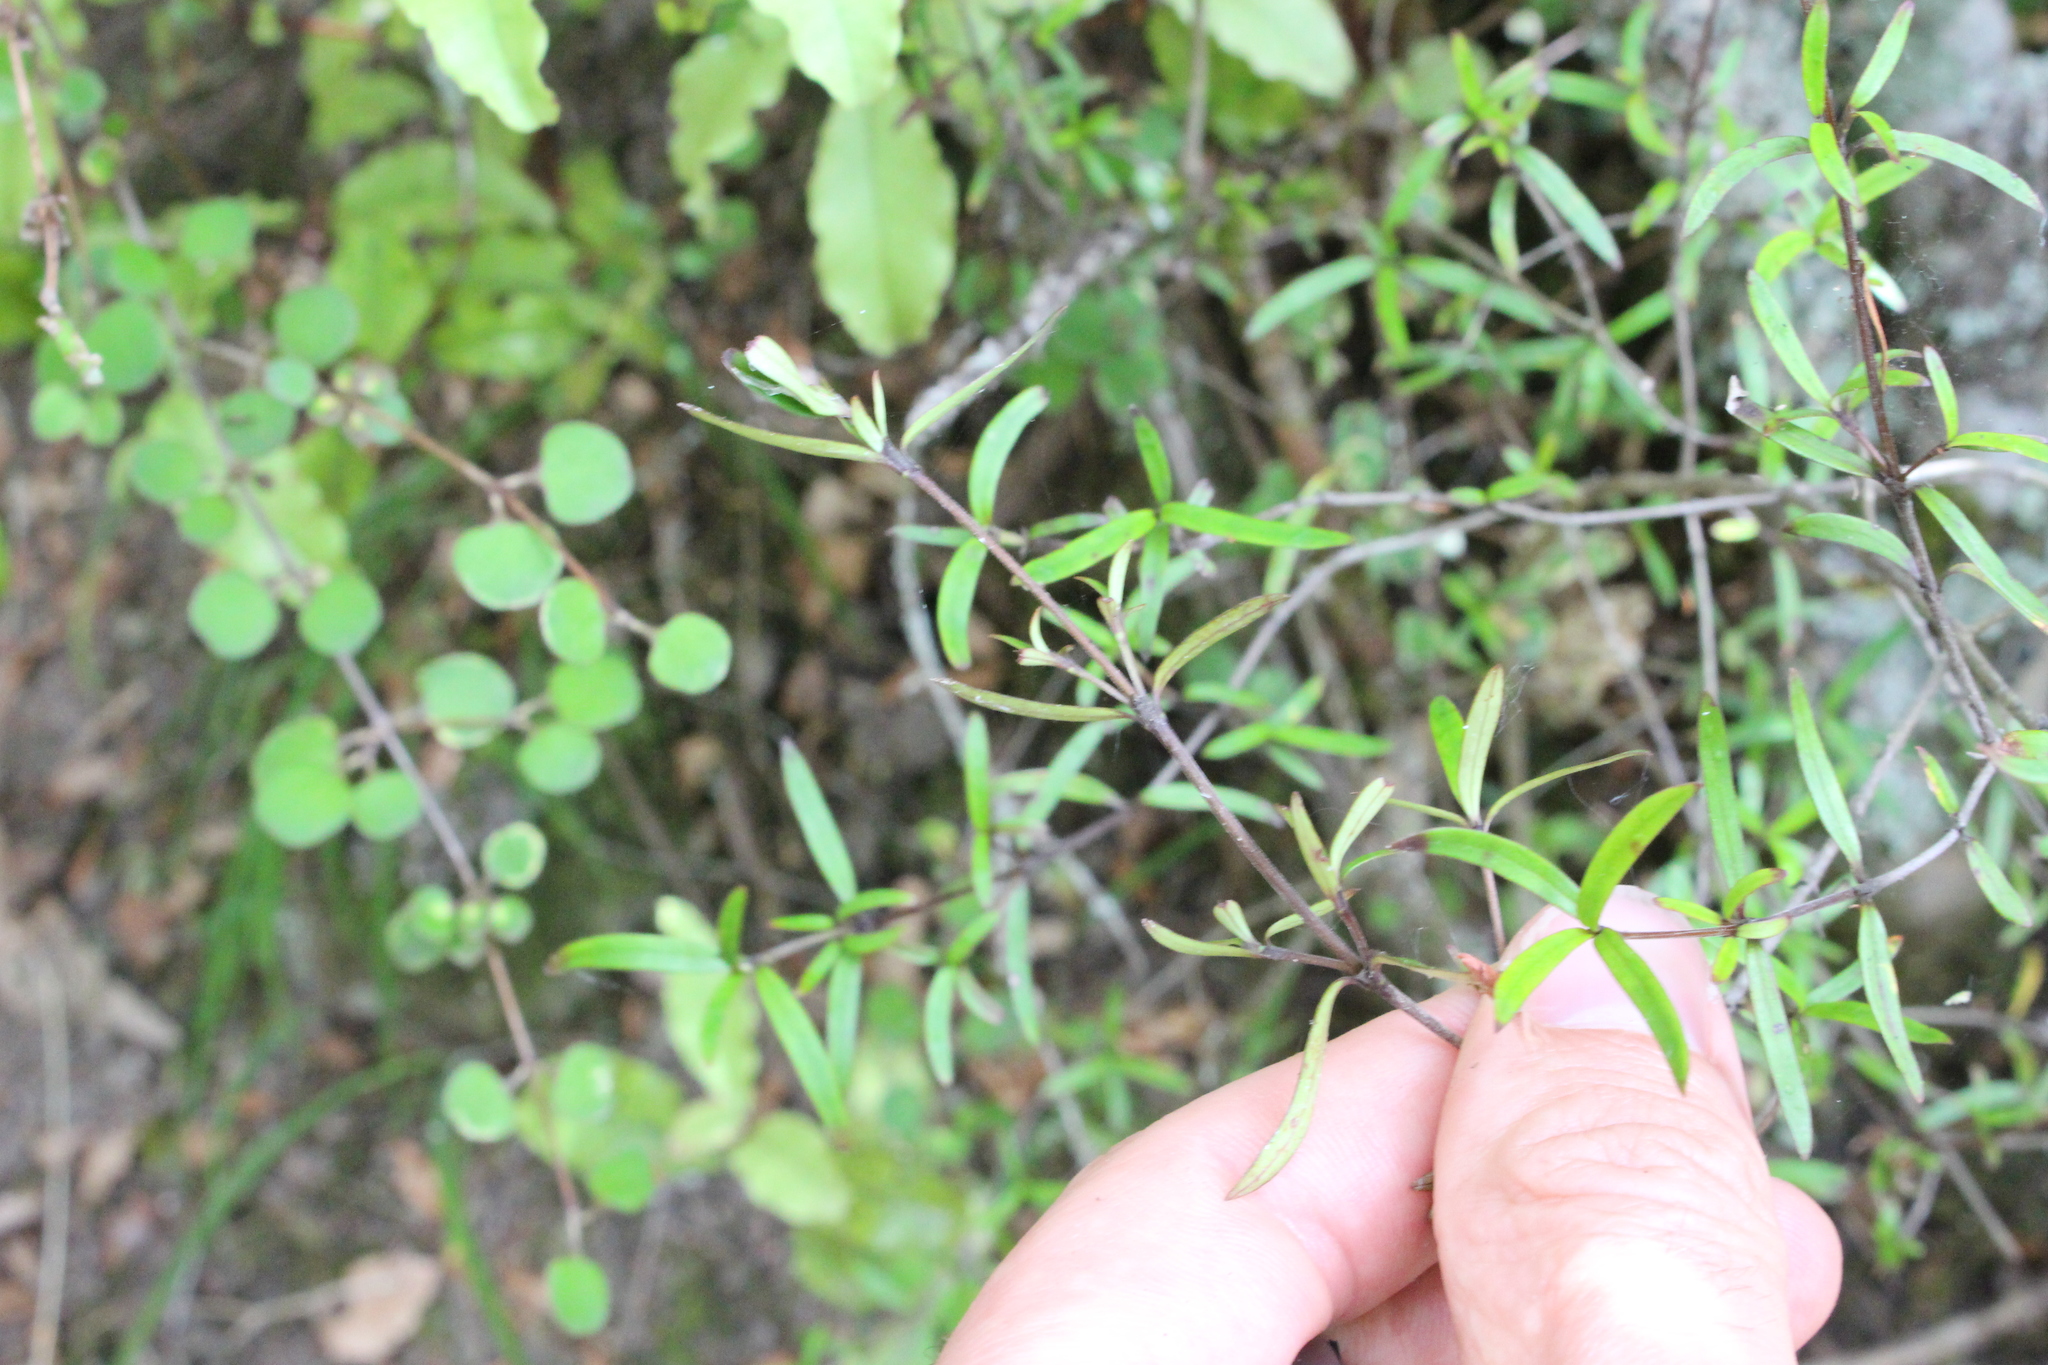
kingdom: Plantae
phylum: Tracheophyta
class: Magnoliopsida
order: Gentianales
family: Rubiaceae
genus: Coprosma
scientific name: Coprosma linariifolia
